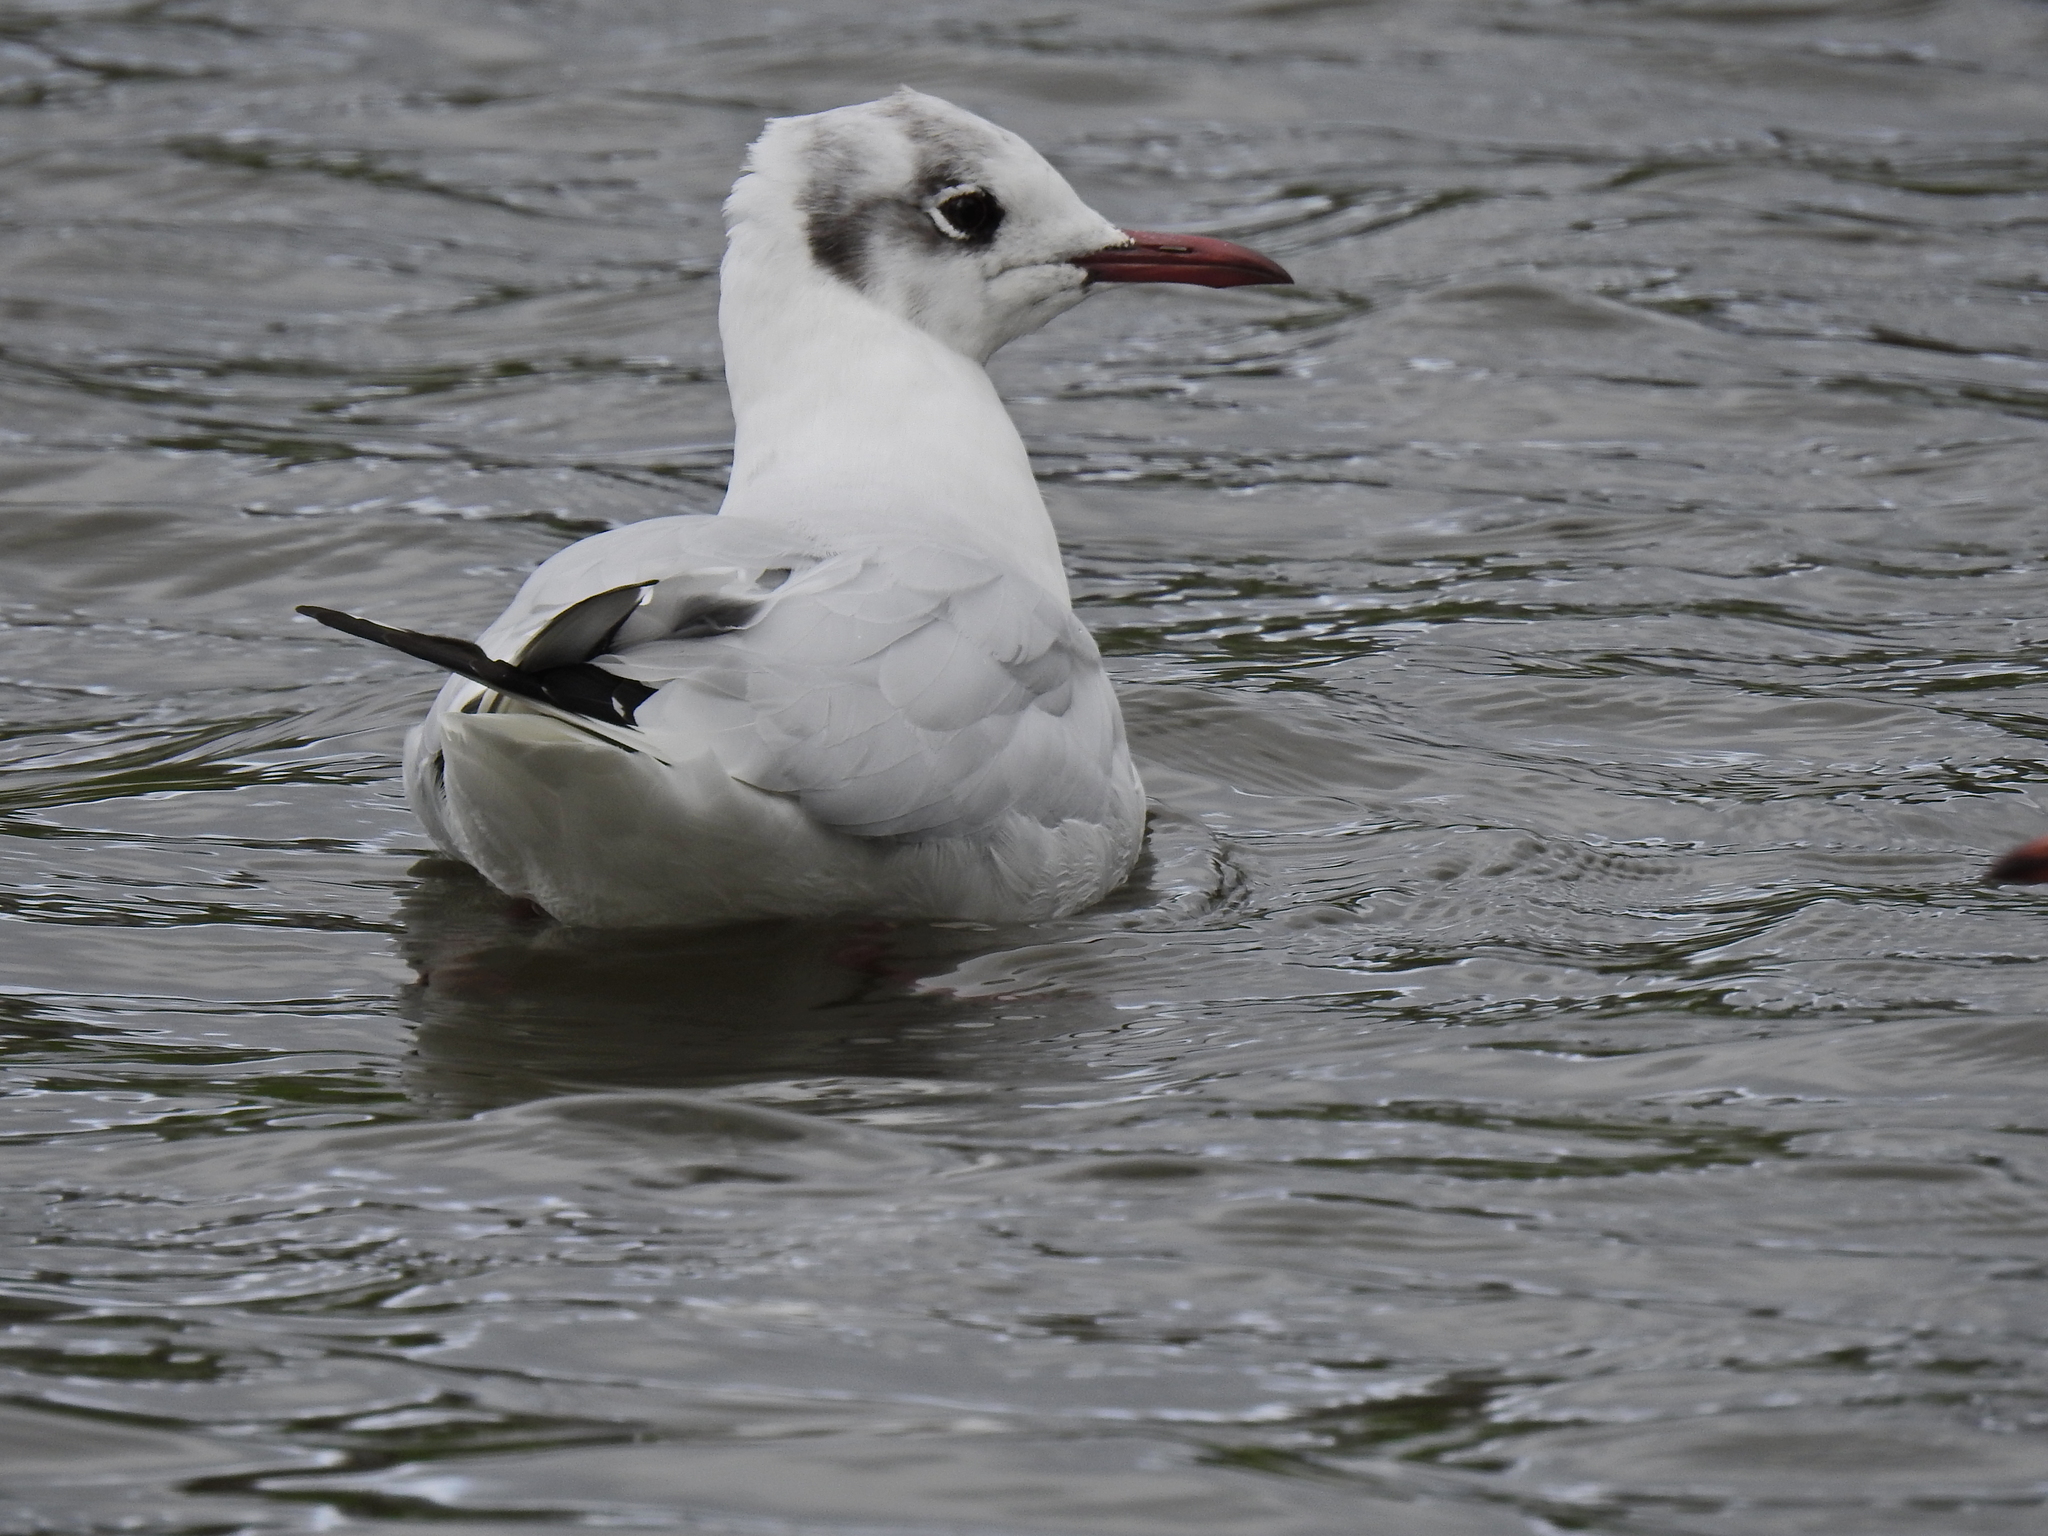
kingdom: Animalia
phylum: Chordata
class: Aves
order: Charadriiformes
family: Laridae
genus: Chroicocephalus
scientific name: Chroicocephalus ridibundus
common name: Black-headed gull
